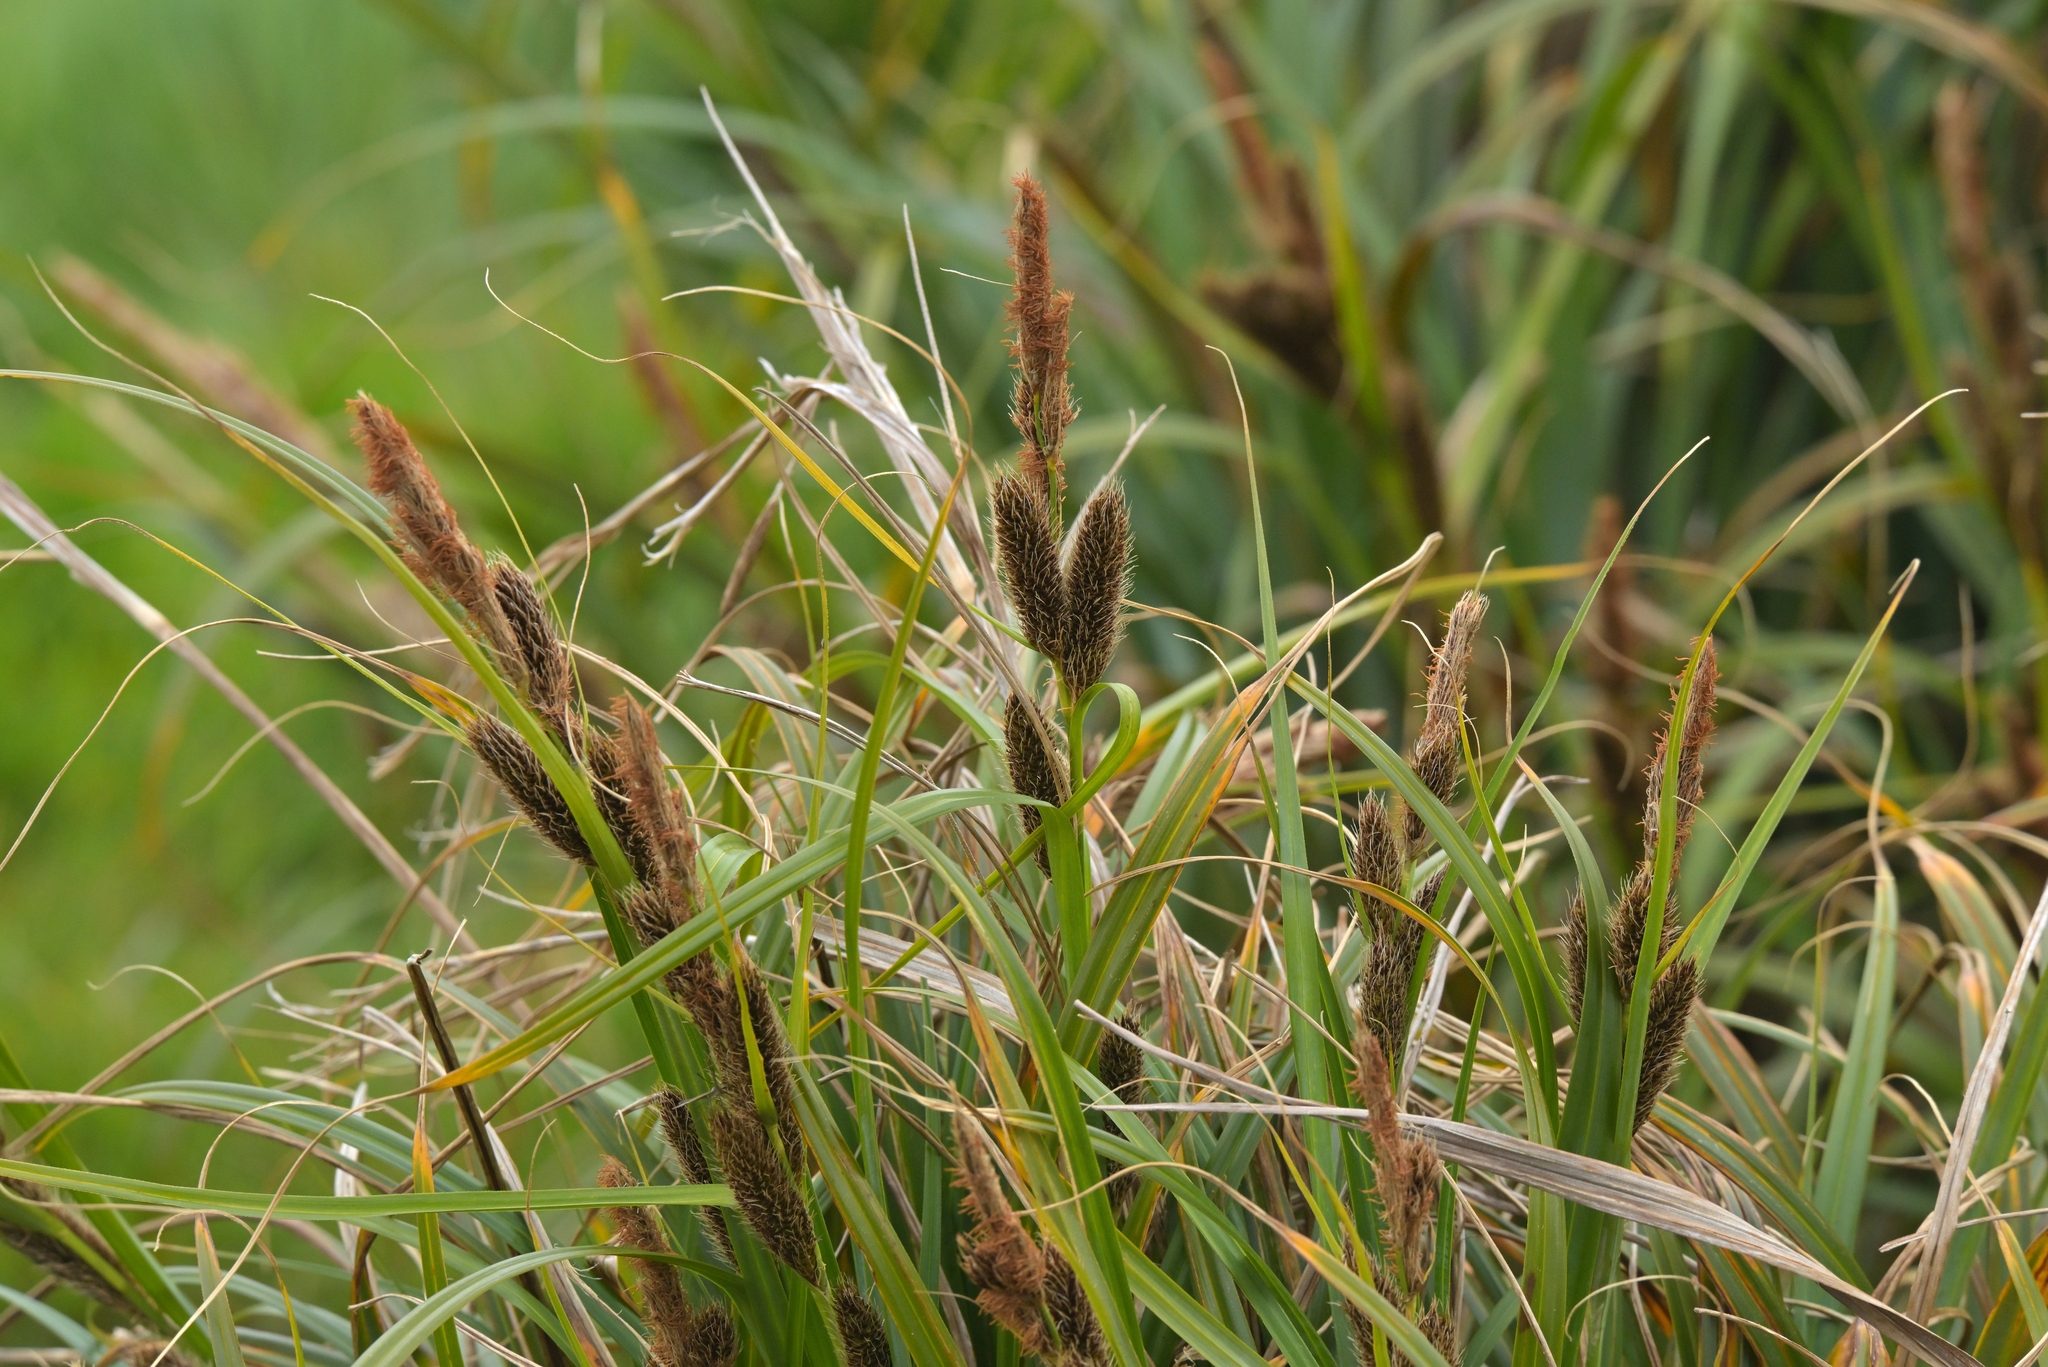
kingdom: Plantae
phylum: Tracheophyta
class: Liliopsida
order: Poales
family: Cyperaceae
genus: Carex
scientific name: Carex trifida
